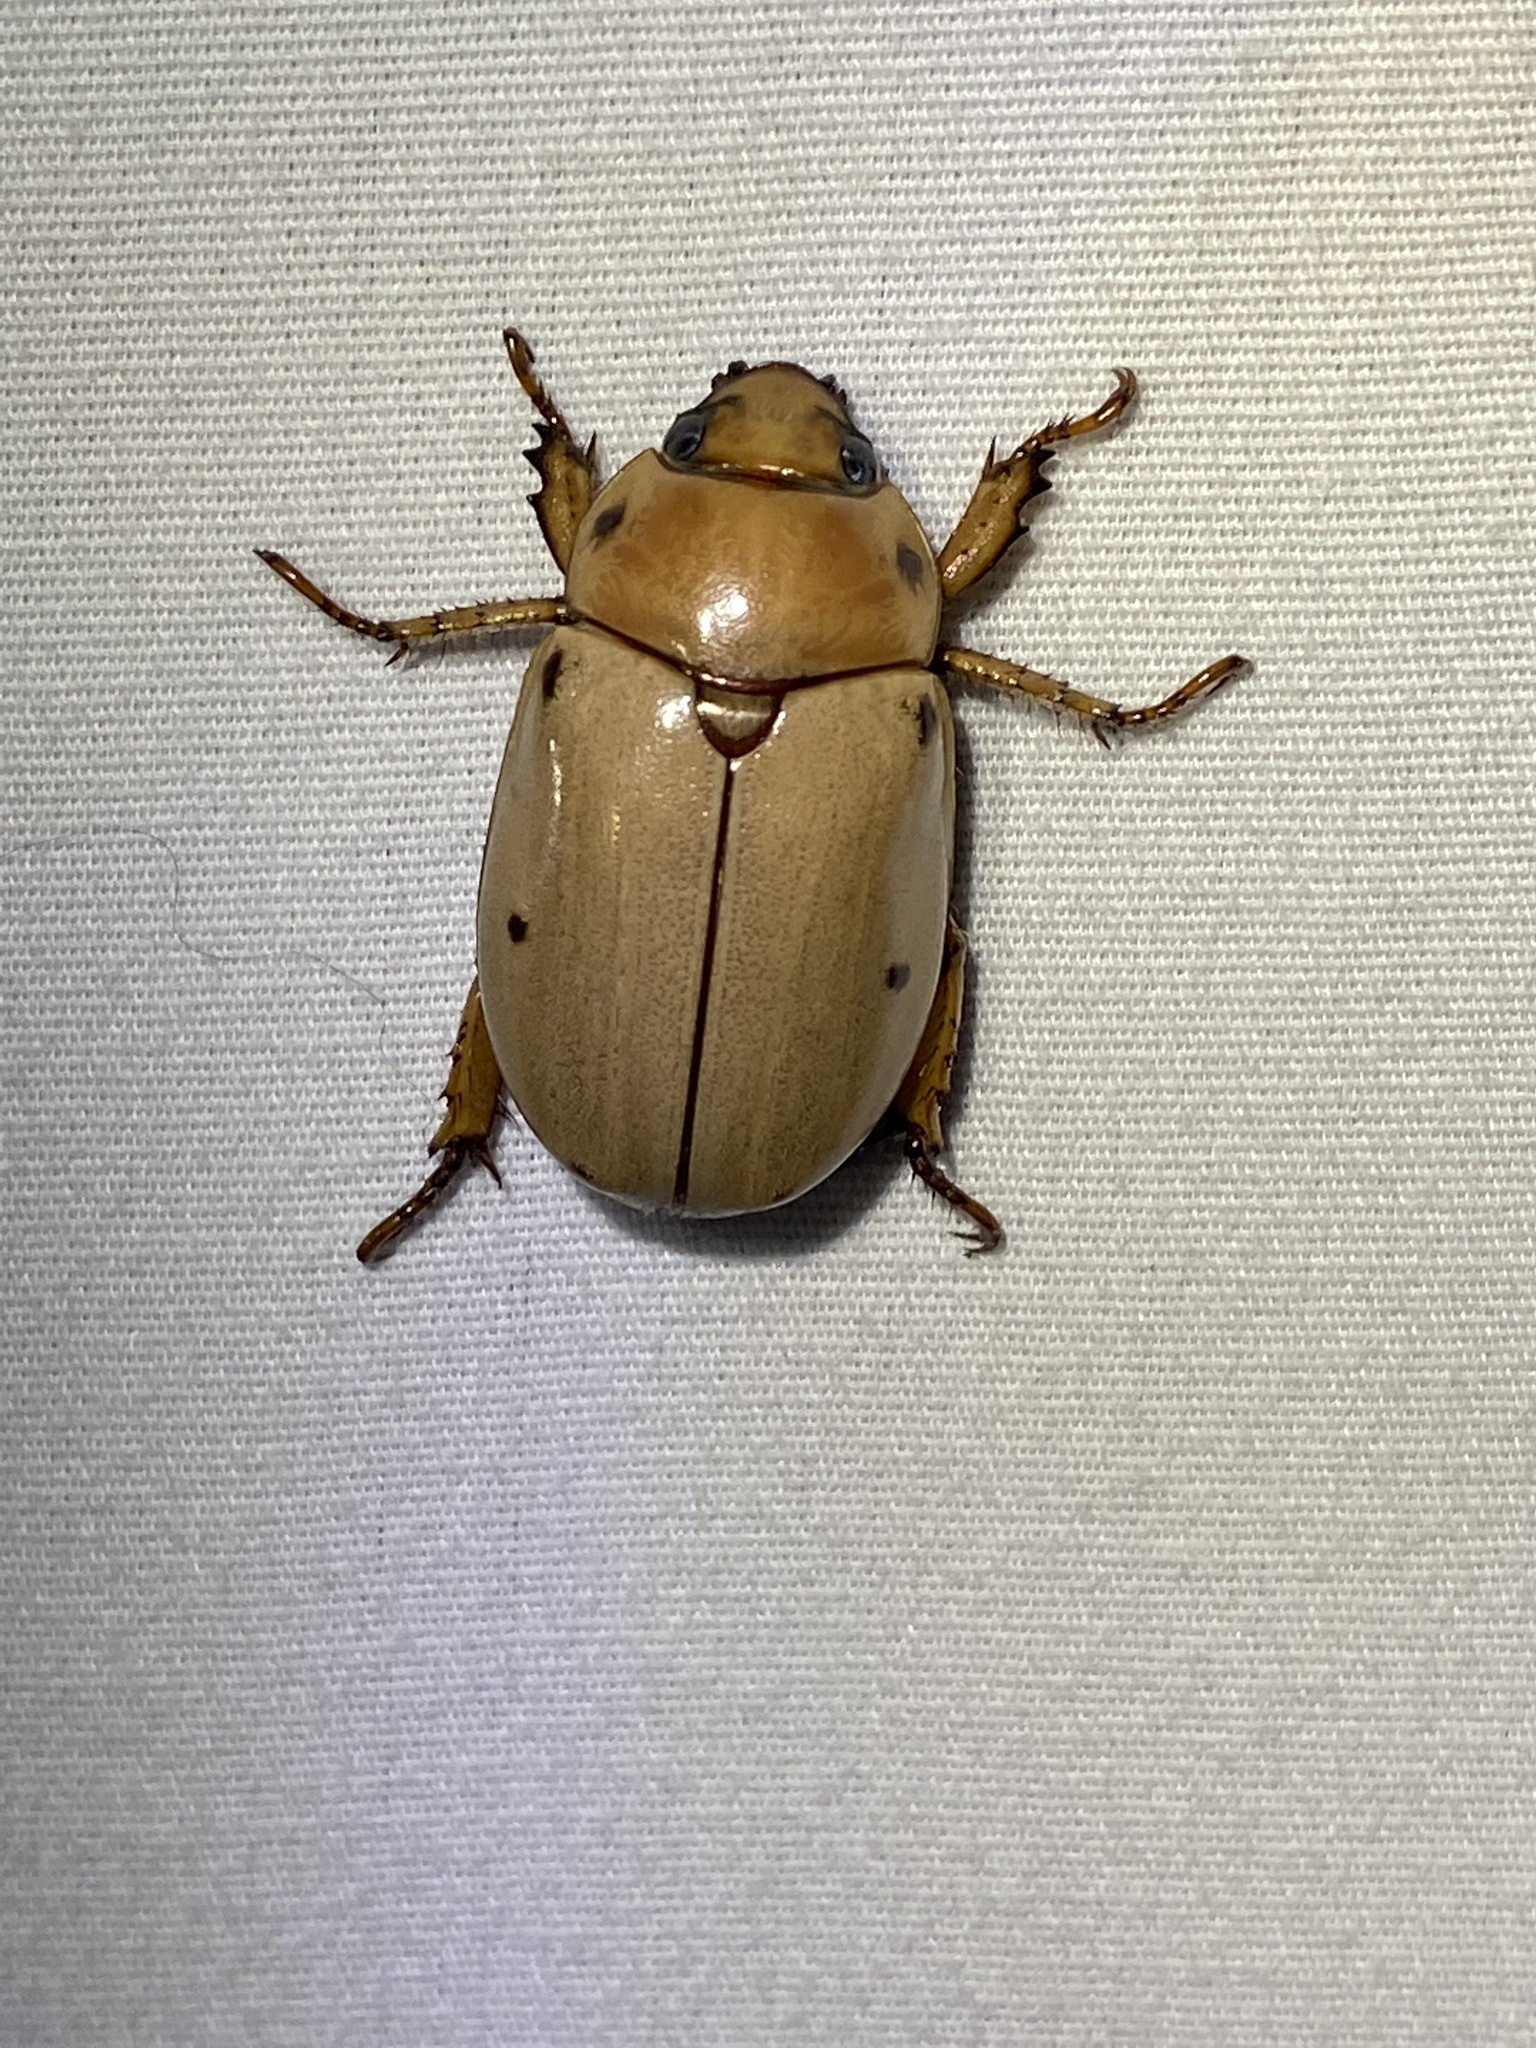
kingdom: Animalia
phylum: Arthropoda
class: Insecta
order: Coleoptera
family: Scarabaeidae
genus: Pelidnota
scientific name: Pelidnota punctata
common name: Grapevine beetle
